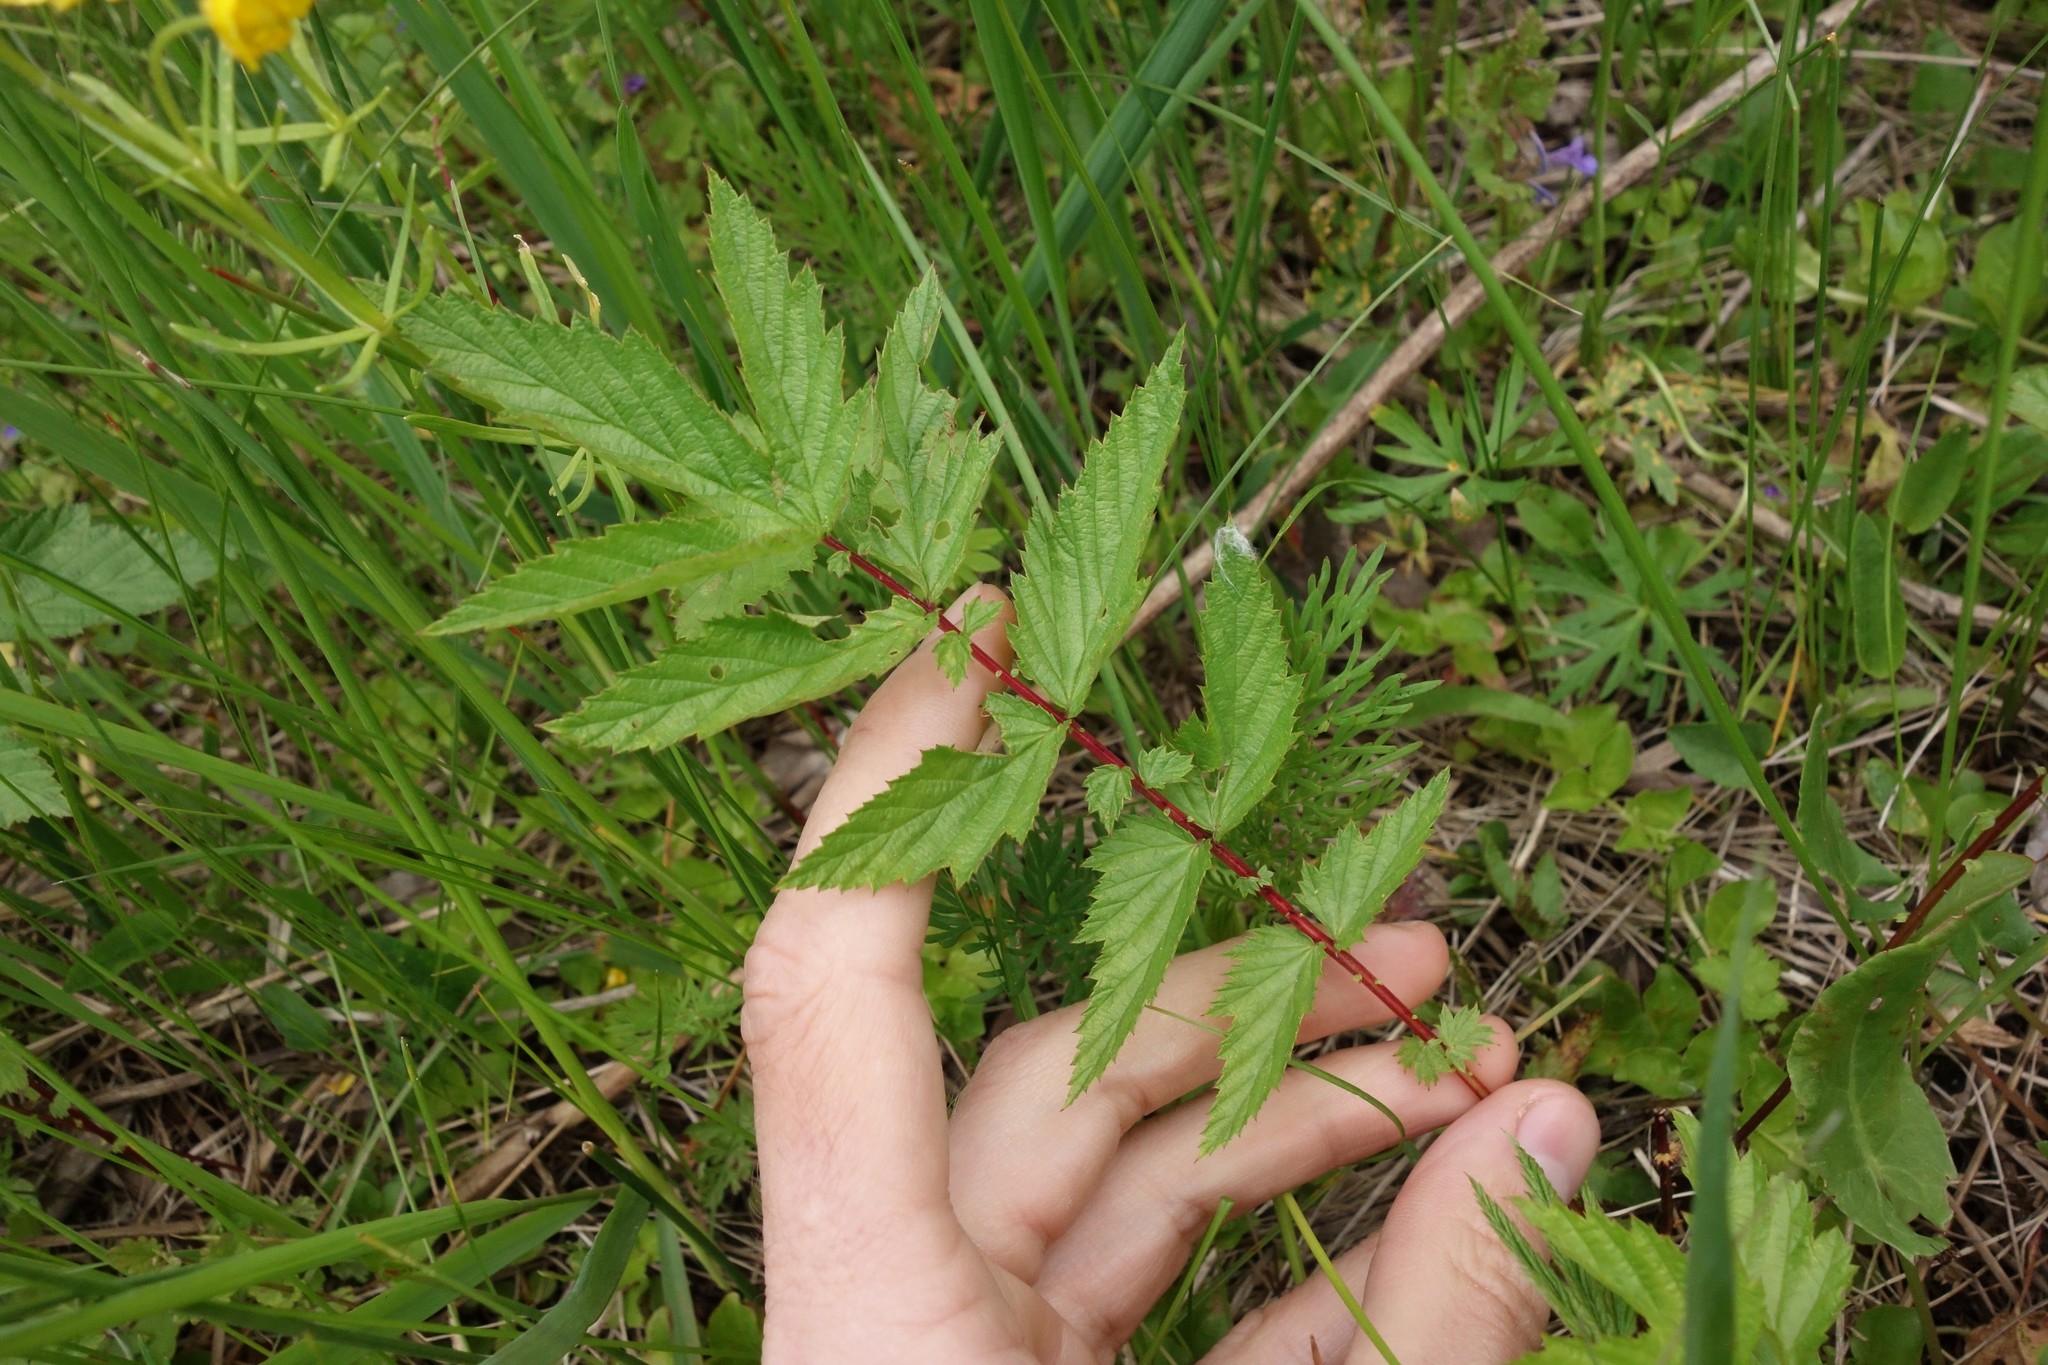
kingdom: Plantae
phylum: Tracheophyta
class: Magnoliopsida
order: Rosales
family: Rosaceae
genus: Filipendula
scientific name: Filipendula ulmaria
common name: Meadowsweet
